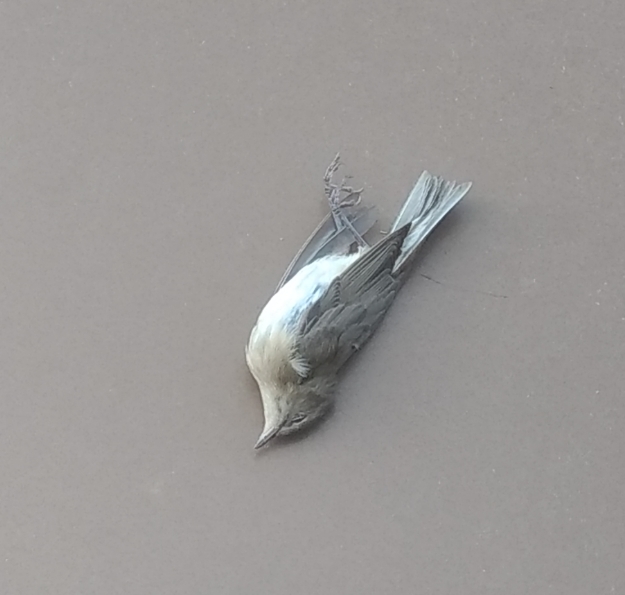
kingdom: Animalia
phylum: Chordata
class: Aves
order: Passeriformes
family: Sylviidae
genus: Sylvia
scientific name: Sylvia borin
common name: Garden warbler
